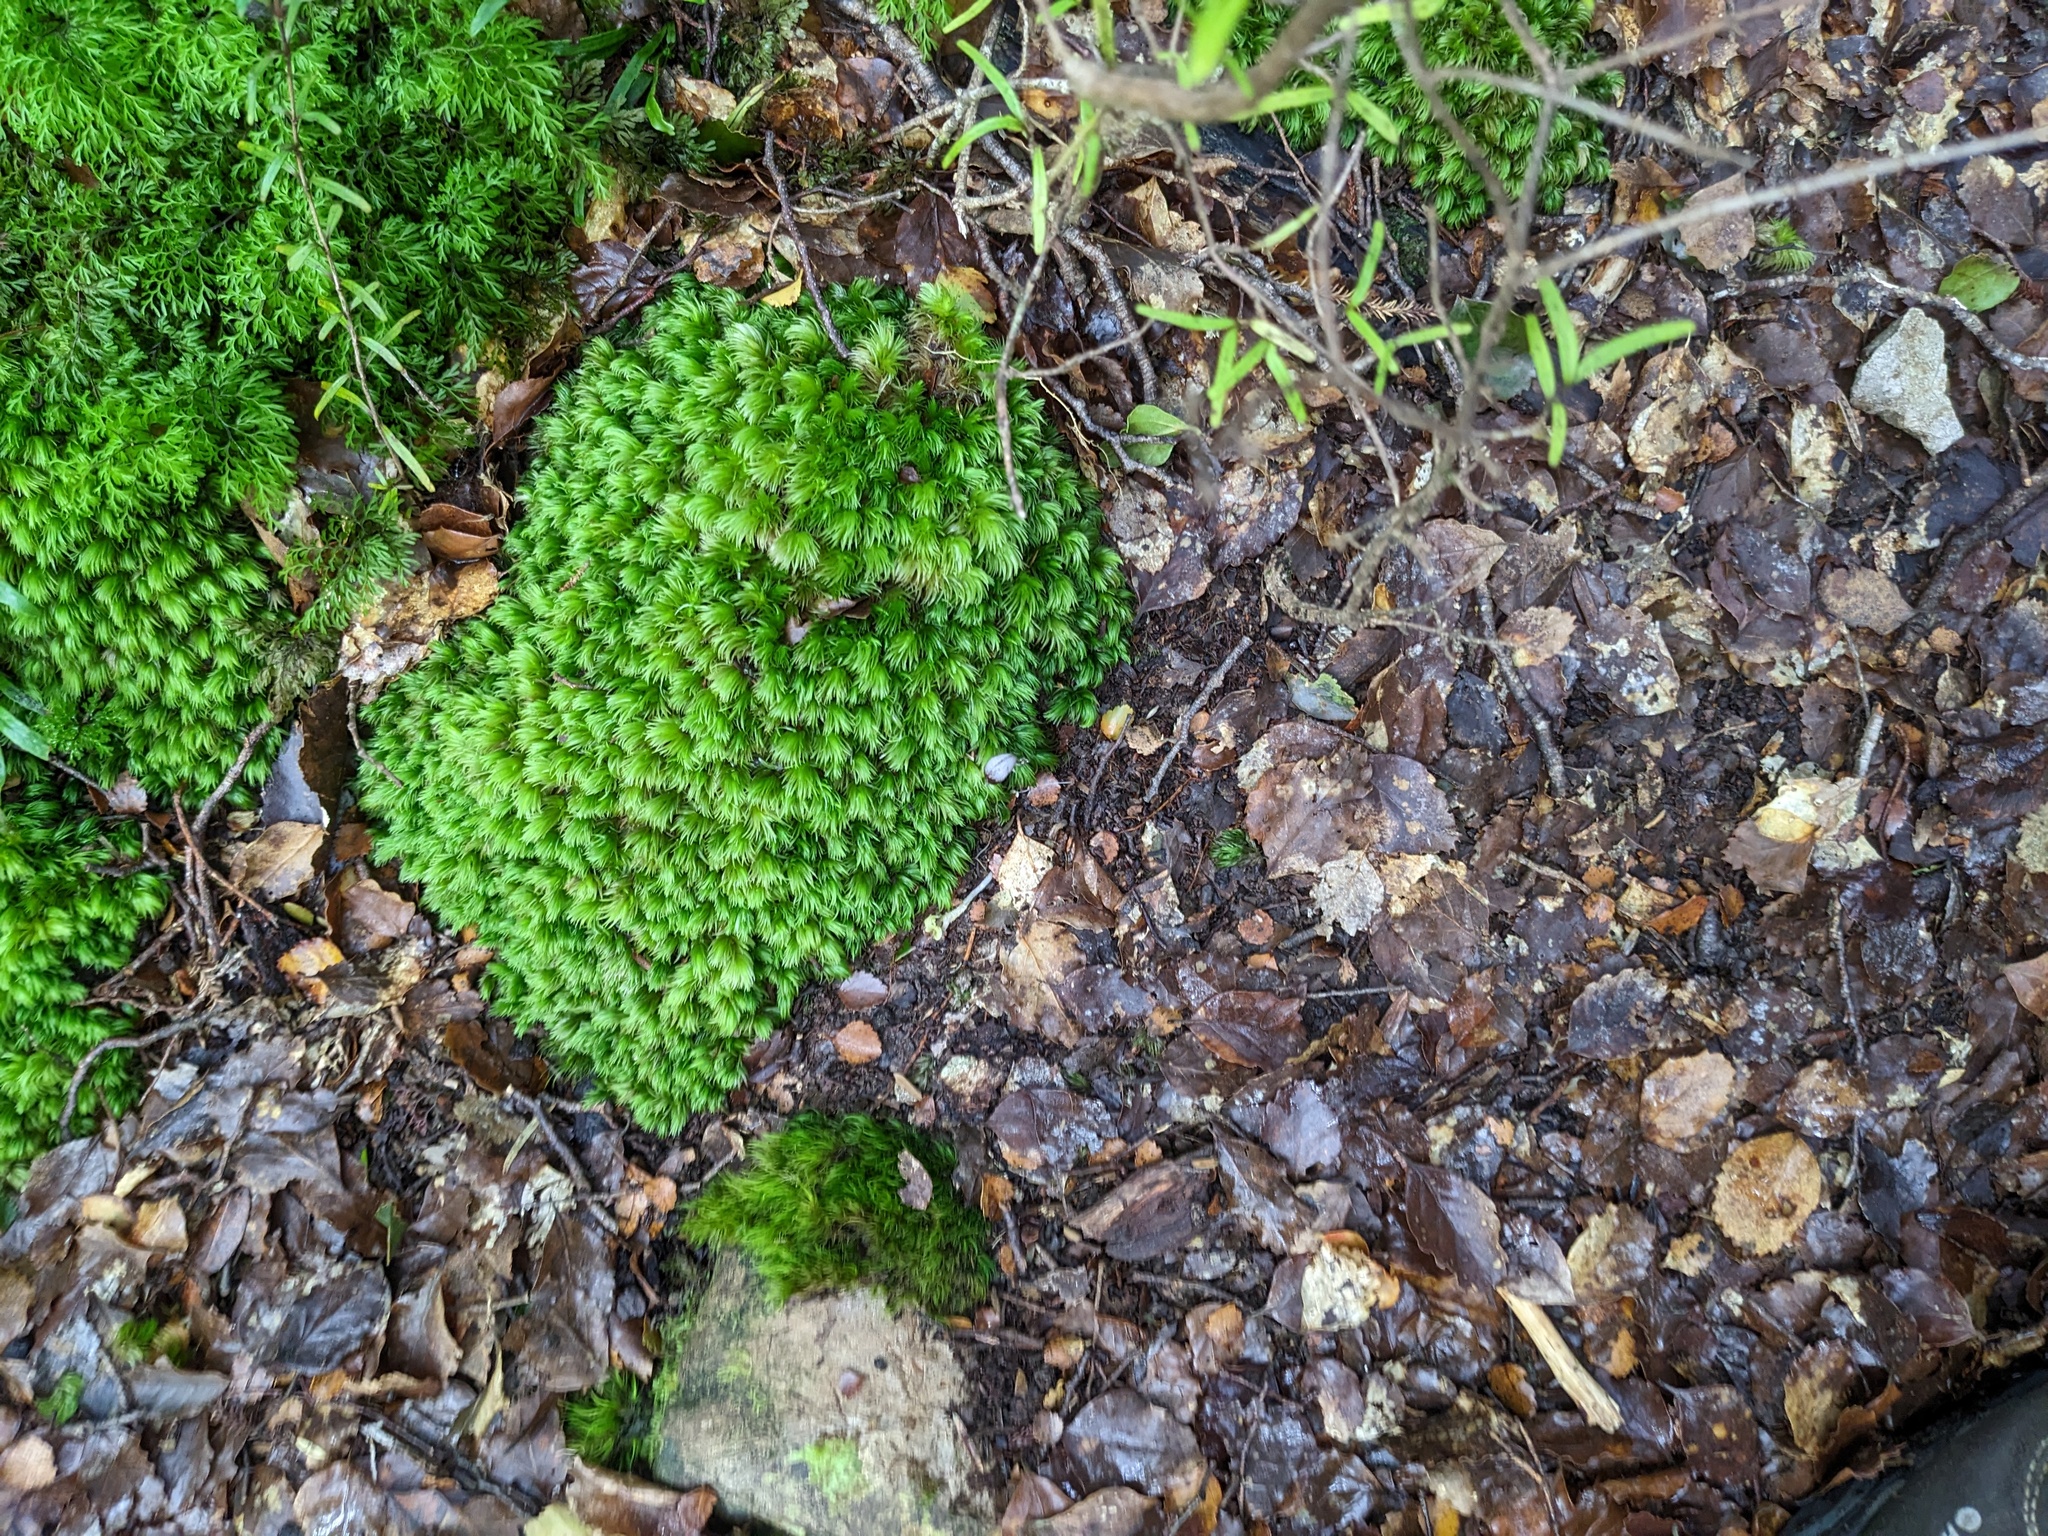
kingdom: Plantae
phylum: Tracheophyta
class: Liliopsida
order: Asparagales
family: Orchidaceae
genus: Corybas
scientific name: Corybas cheesemanii
